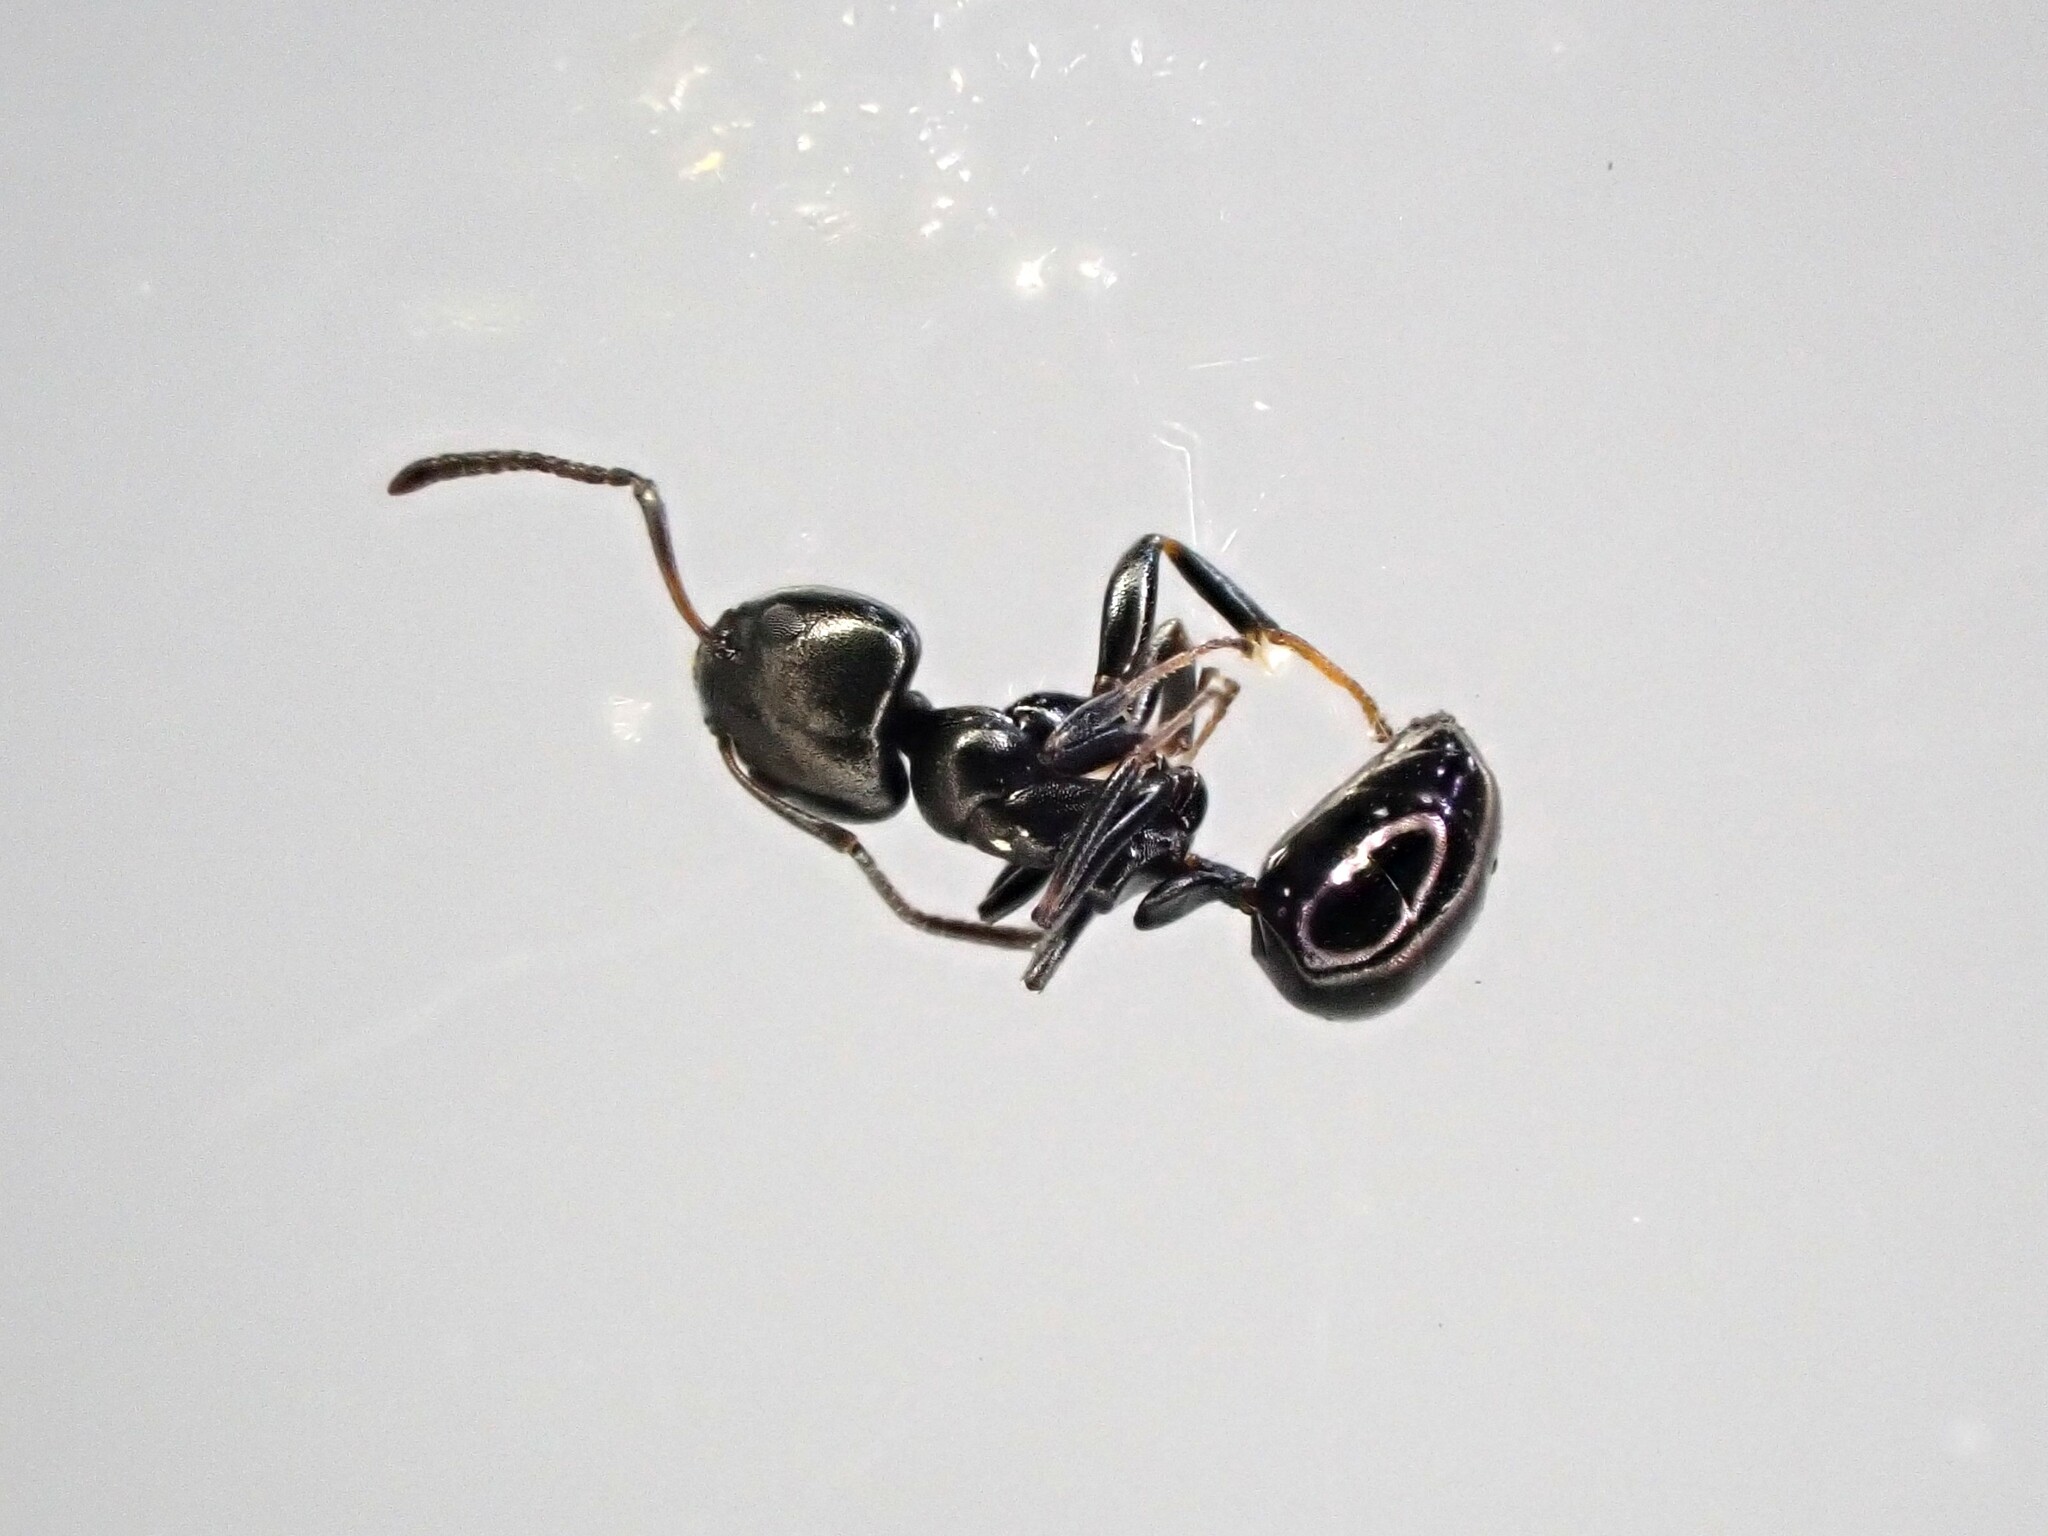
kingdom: Animalia
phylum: Arthropoda
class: Insecta
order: Hymenoptera
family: Formicidae
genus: Ochetellus
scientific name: Ochetellus glaber
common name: Ant
